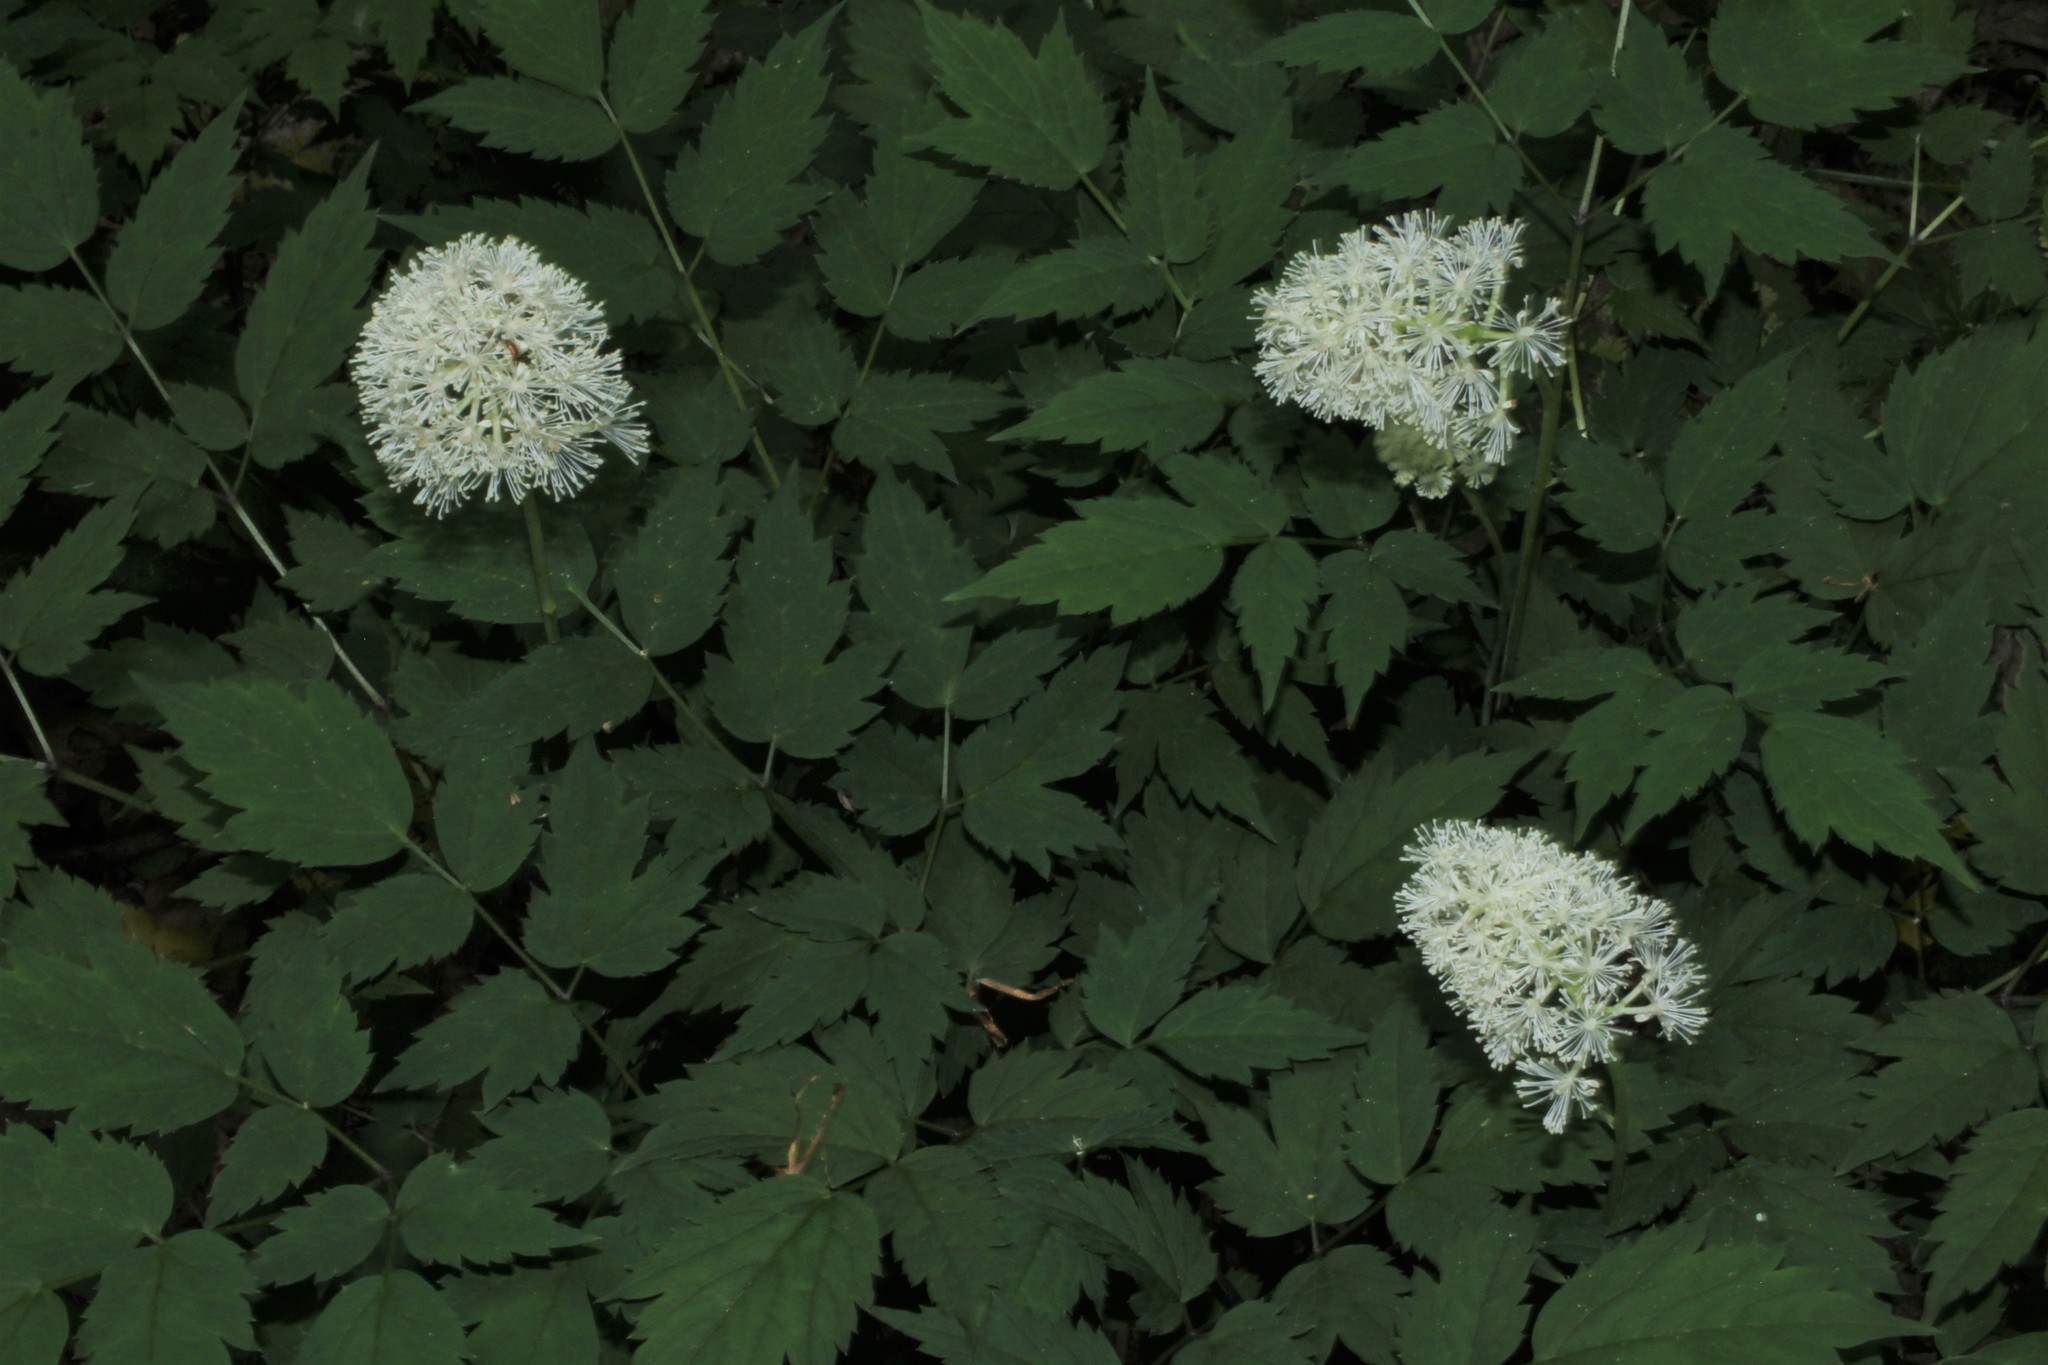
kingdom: Plantae
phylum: Tracheophyta
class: Magnoliopsida
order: Ranunculales
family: Ranunculaceae
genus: Actaea
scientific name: Actaea pachypoda
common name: Doll's-eyes
